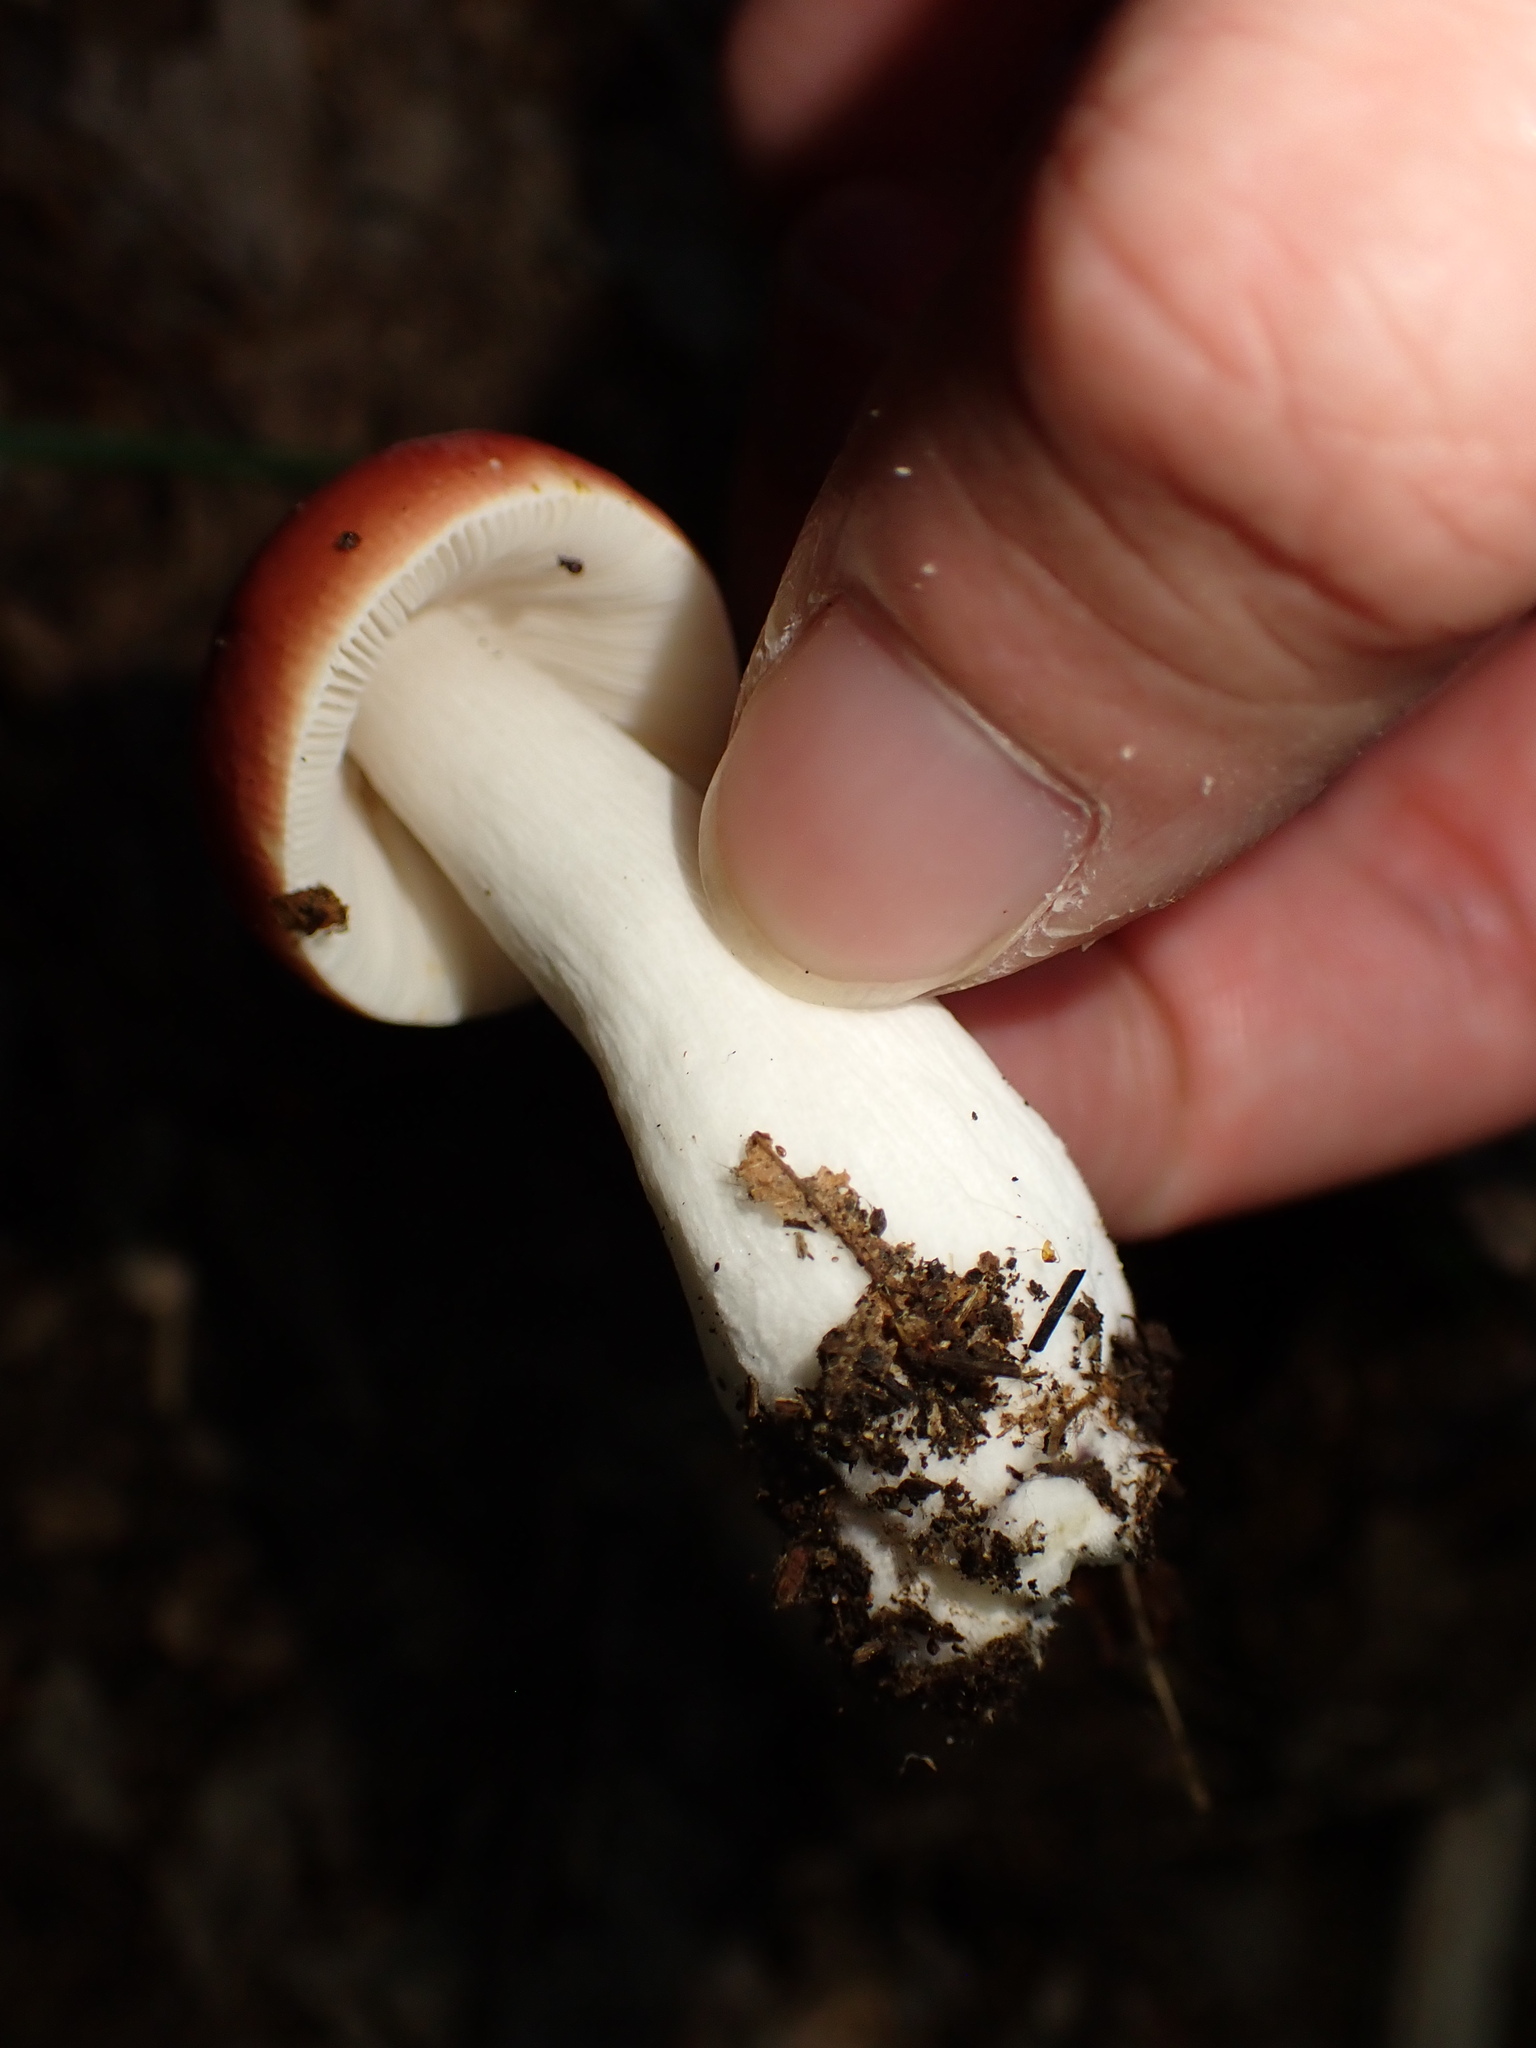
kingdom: Fungi
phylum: Basidiomycota
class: Agaricomycetes
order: Russulales
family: Russulaceae
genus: Russula
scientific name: Russula
